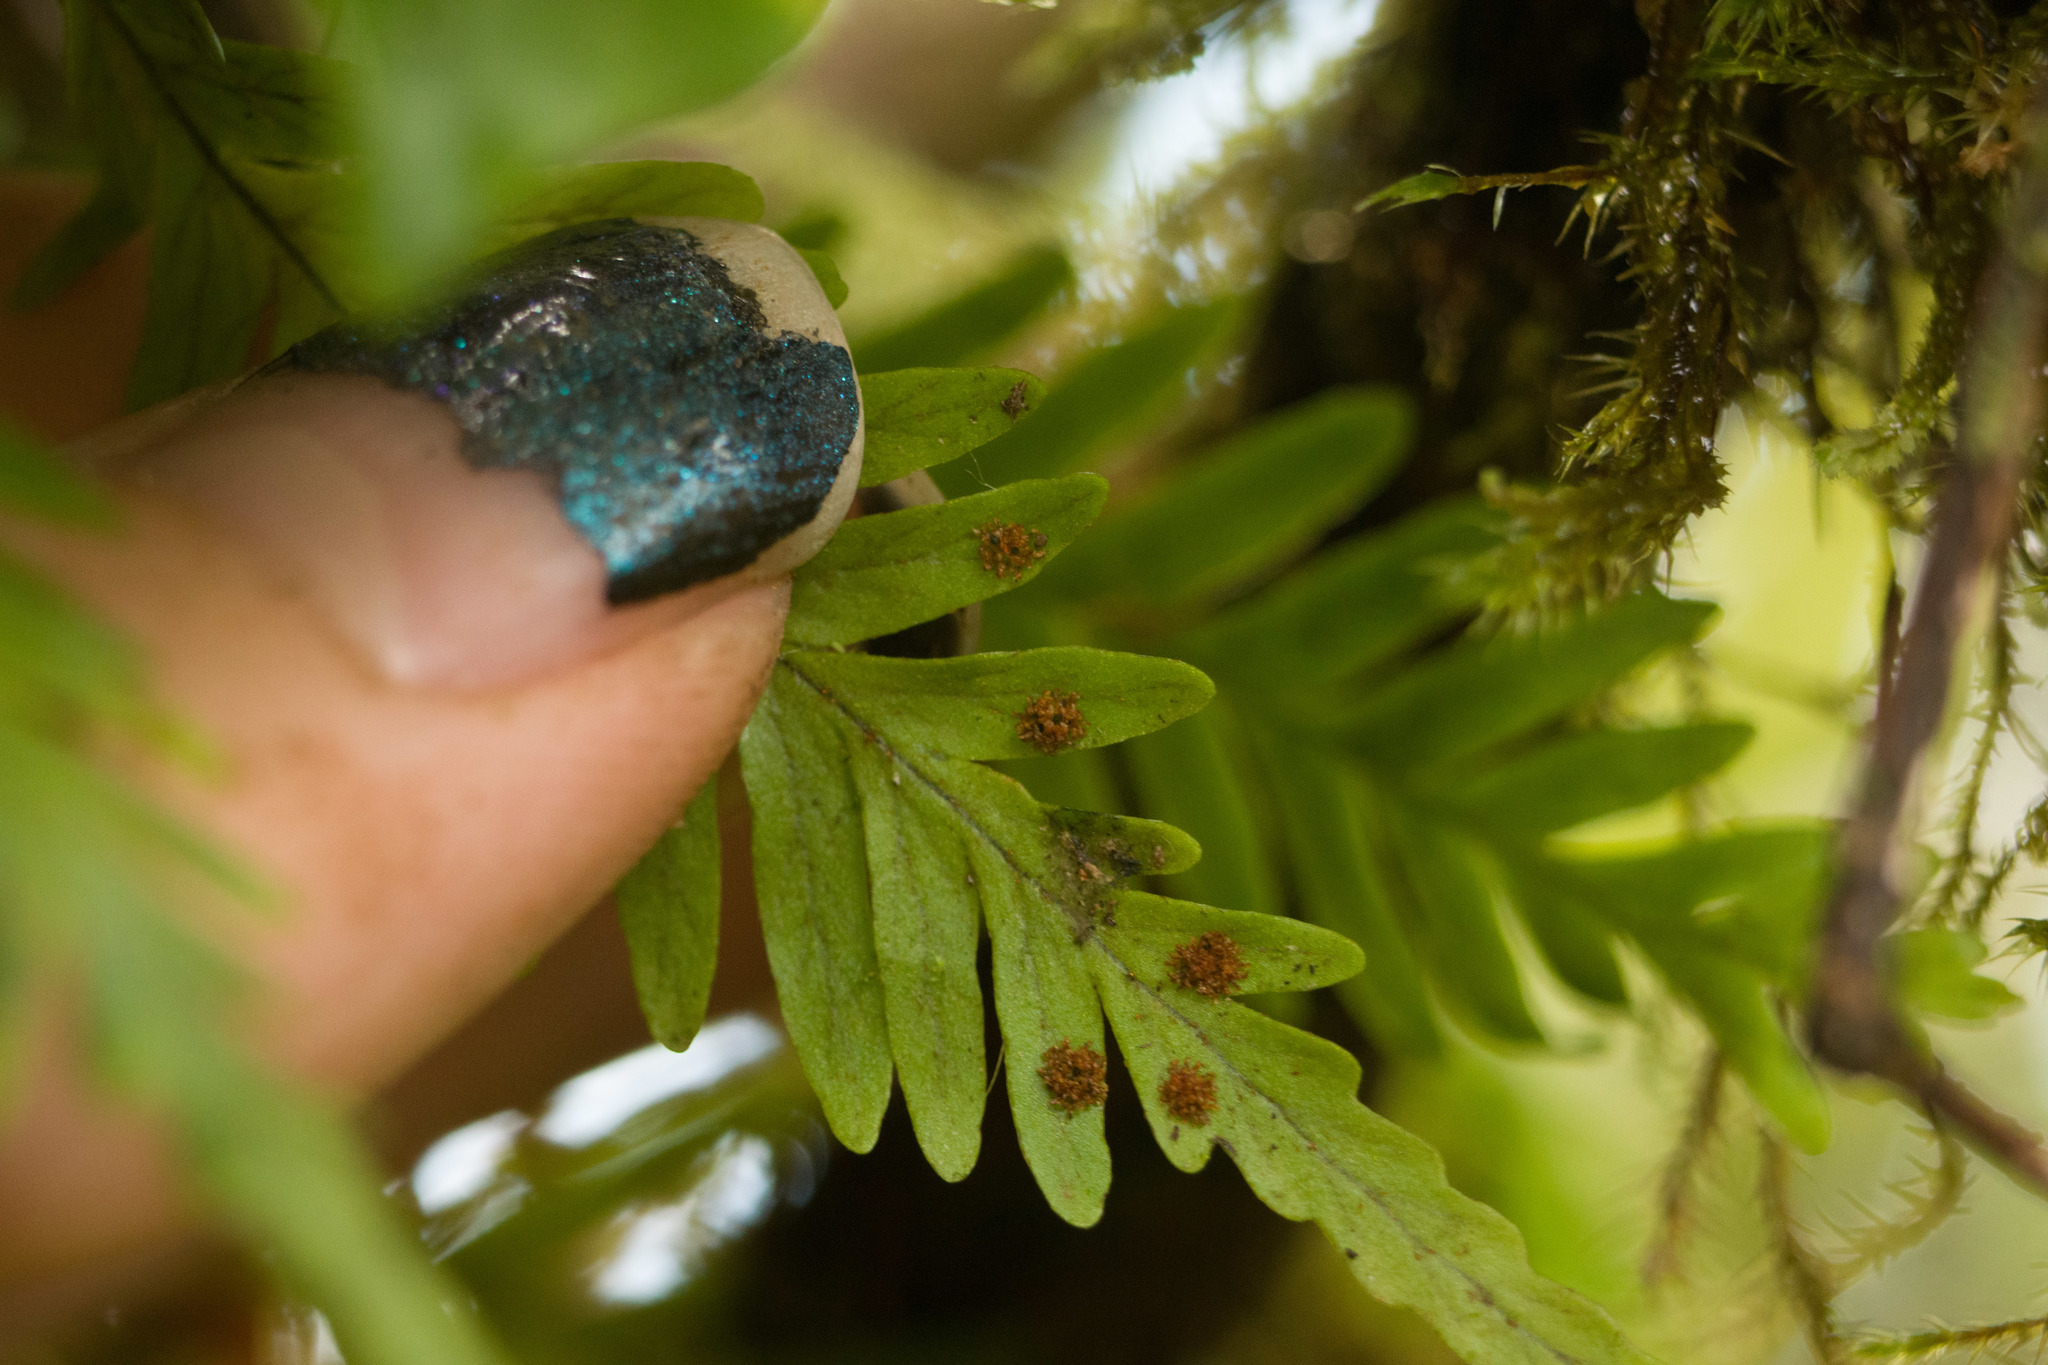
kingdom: Plantae
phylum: Tracheophyta
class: Polypodiopsida
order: Polypodiales
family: Polypodiaceae
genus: Adenophorus
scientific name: Adenophorus pinnatifidus
